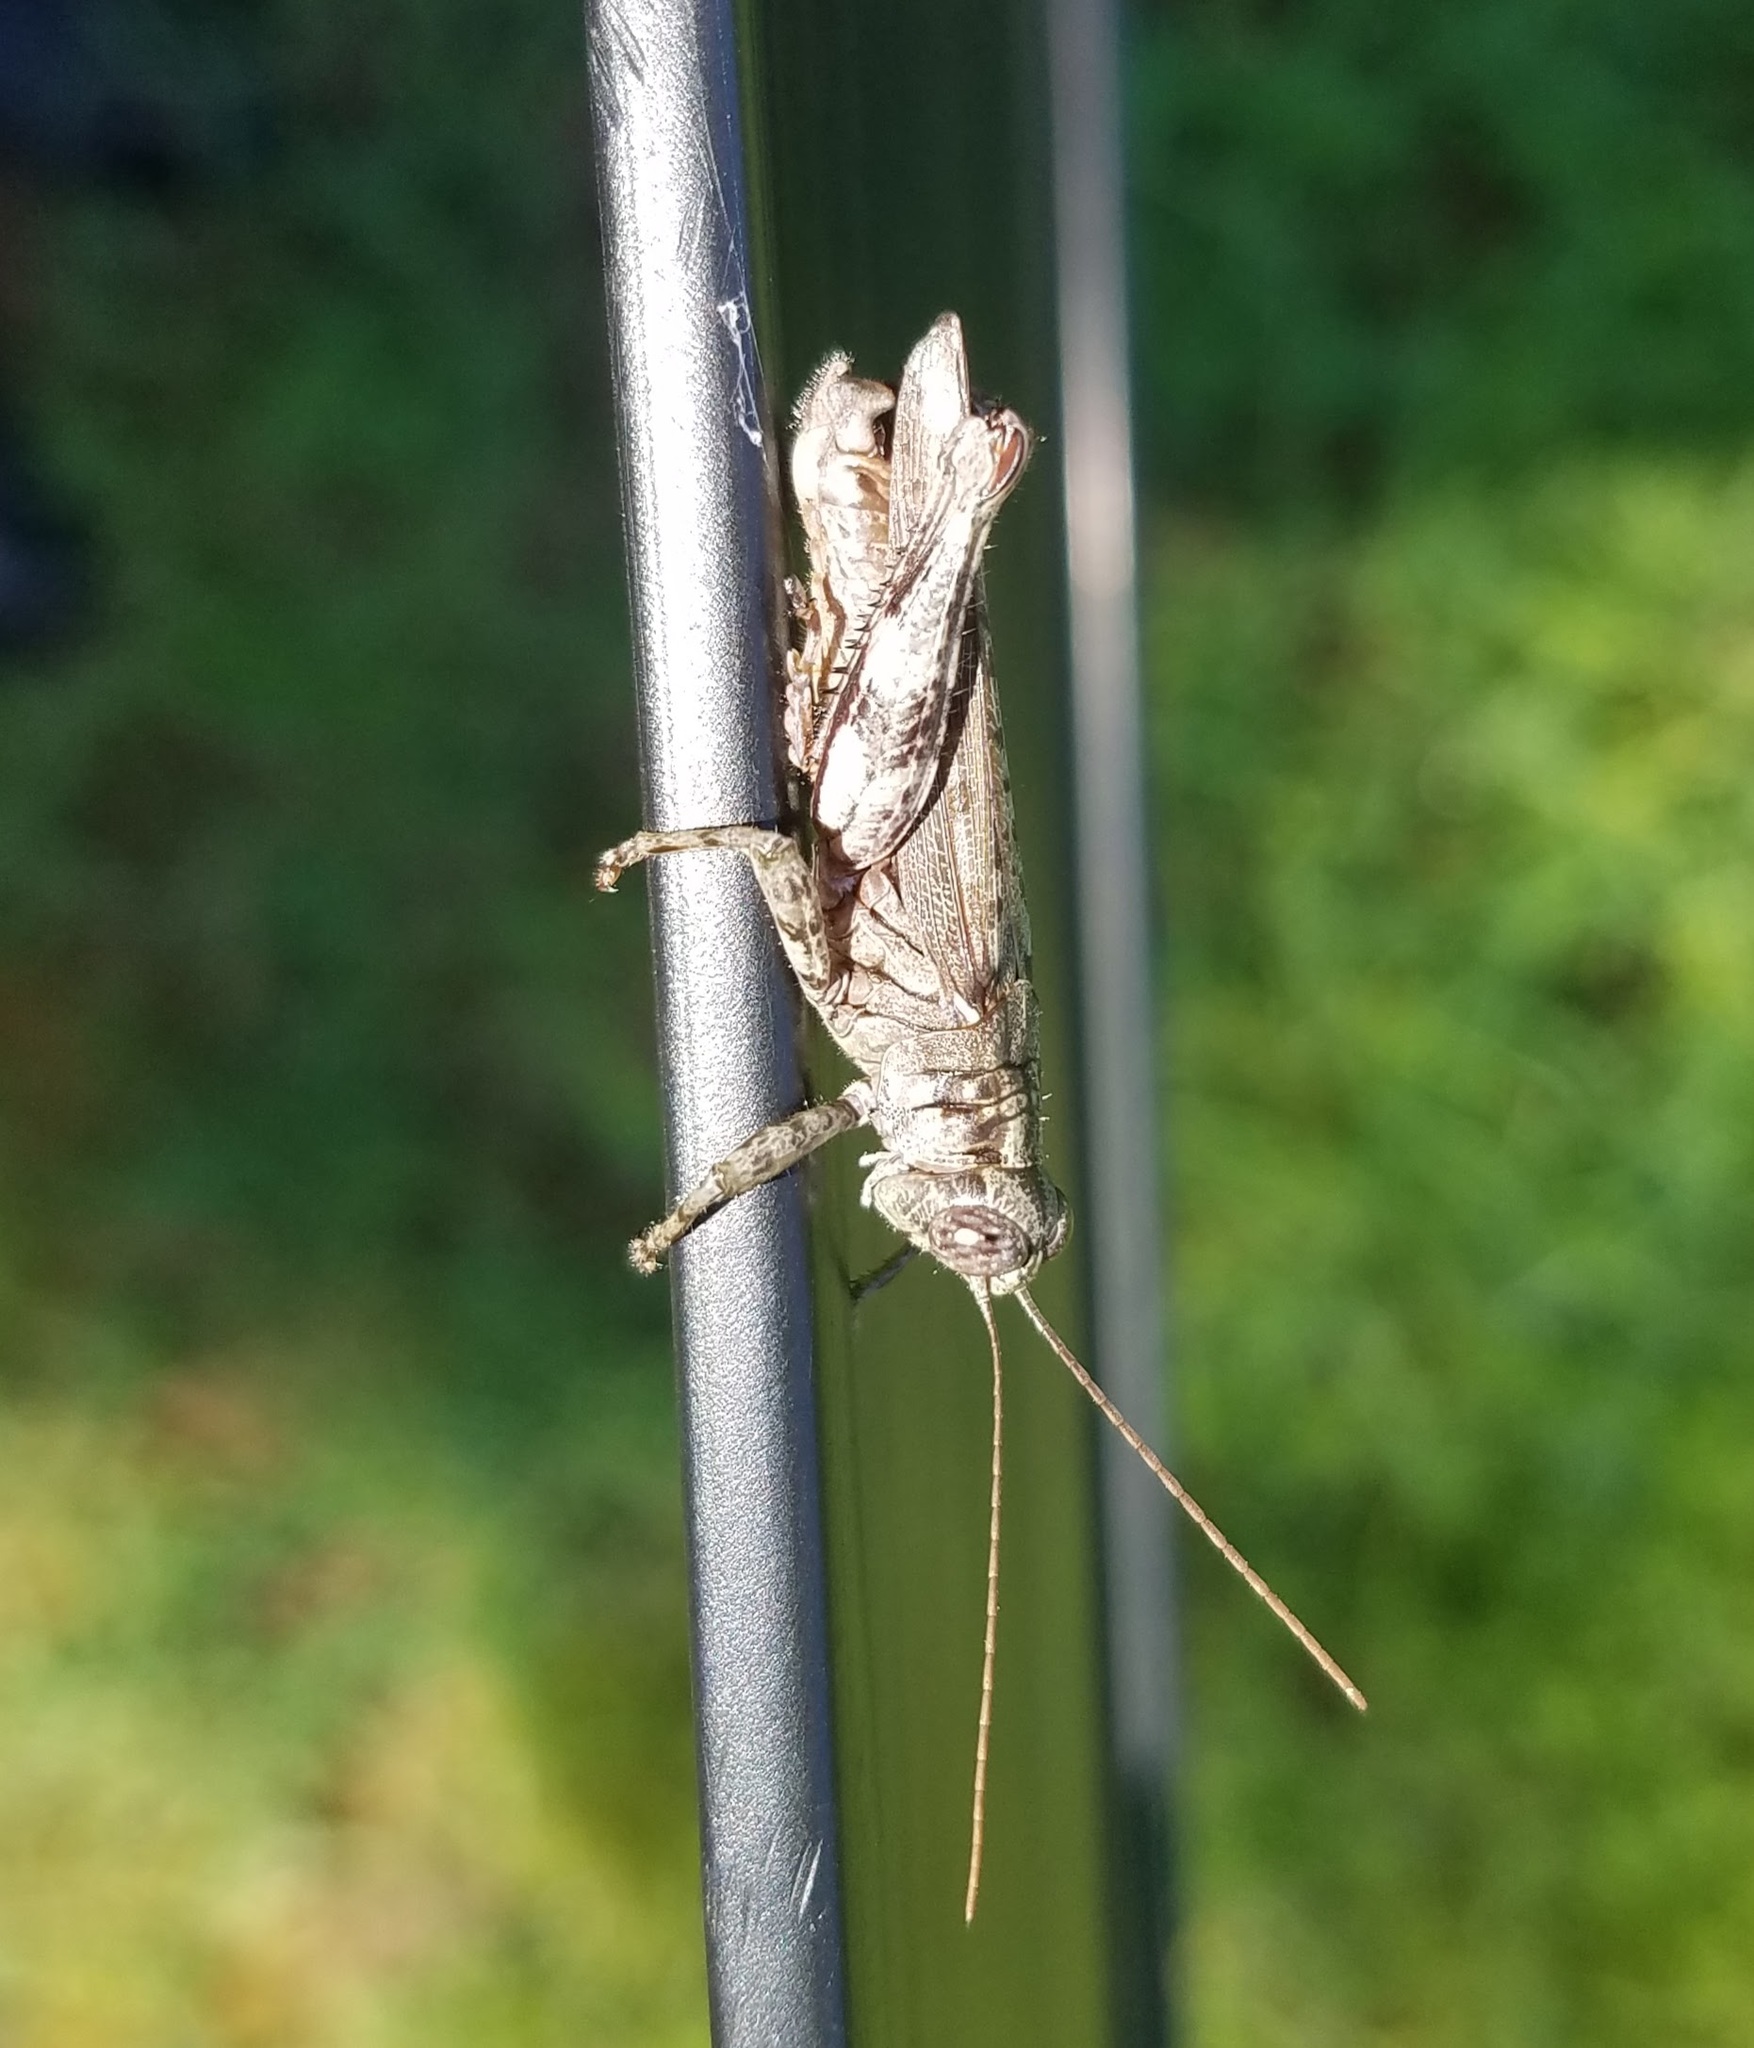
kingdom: Animalia
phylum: Arthropoda
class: Insecta
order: Orthoptera
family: Acrididae
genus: Melanoplus
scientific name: Melanoplus punctulatus
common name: Pine-tree spur-throat grasshopper
